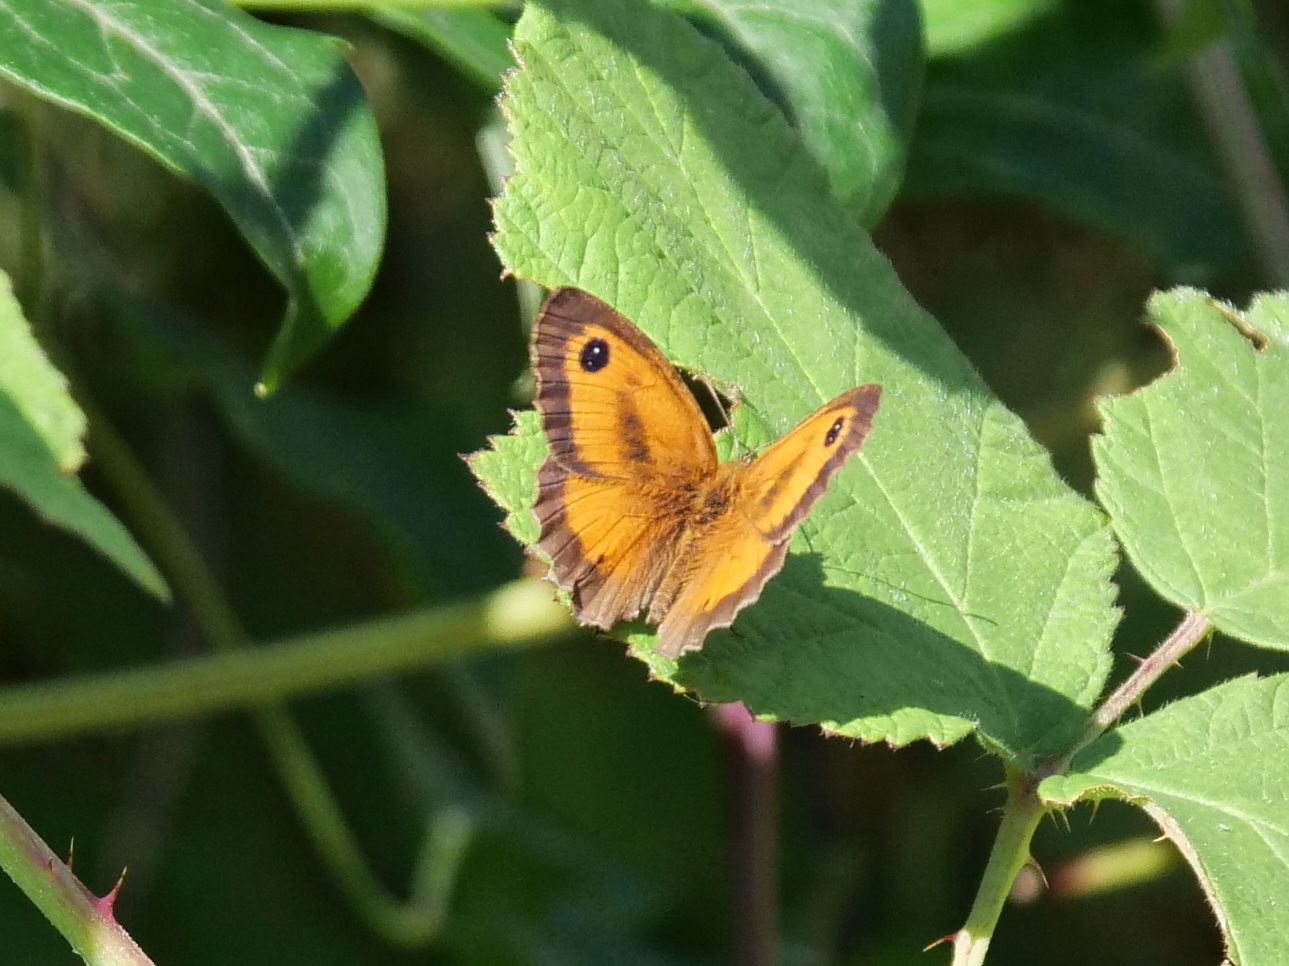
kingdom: Animalia
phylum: Arthropoda
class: Insecta
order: Lepidoptera
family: Nymphalidae
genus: Pyronia
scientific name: Pyronia tithonus
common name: Gatekeeper
